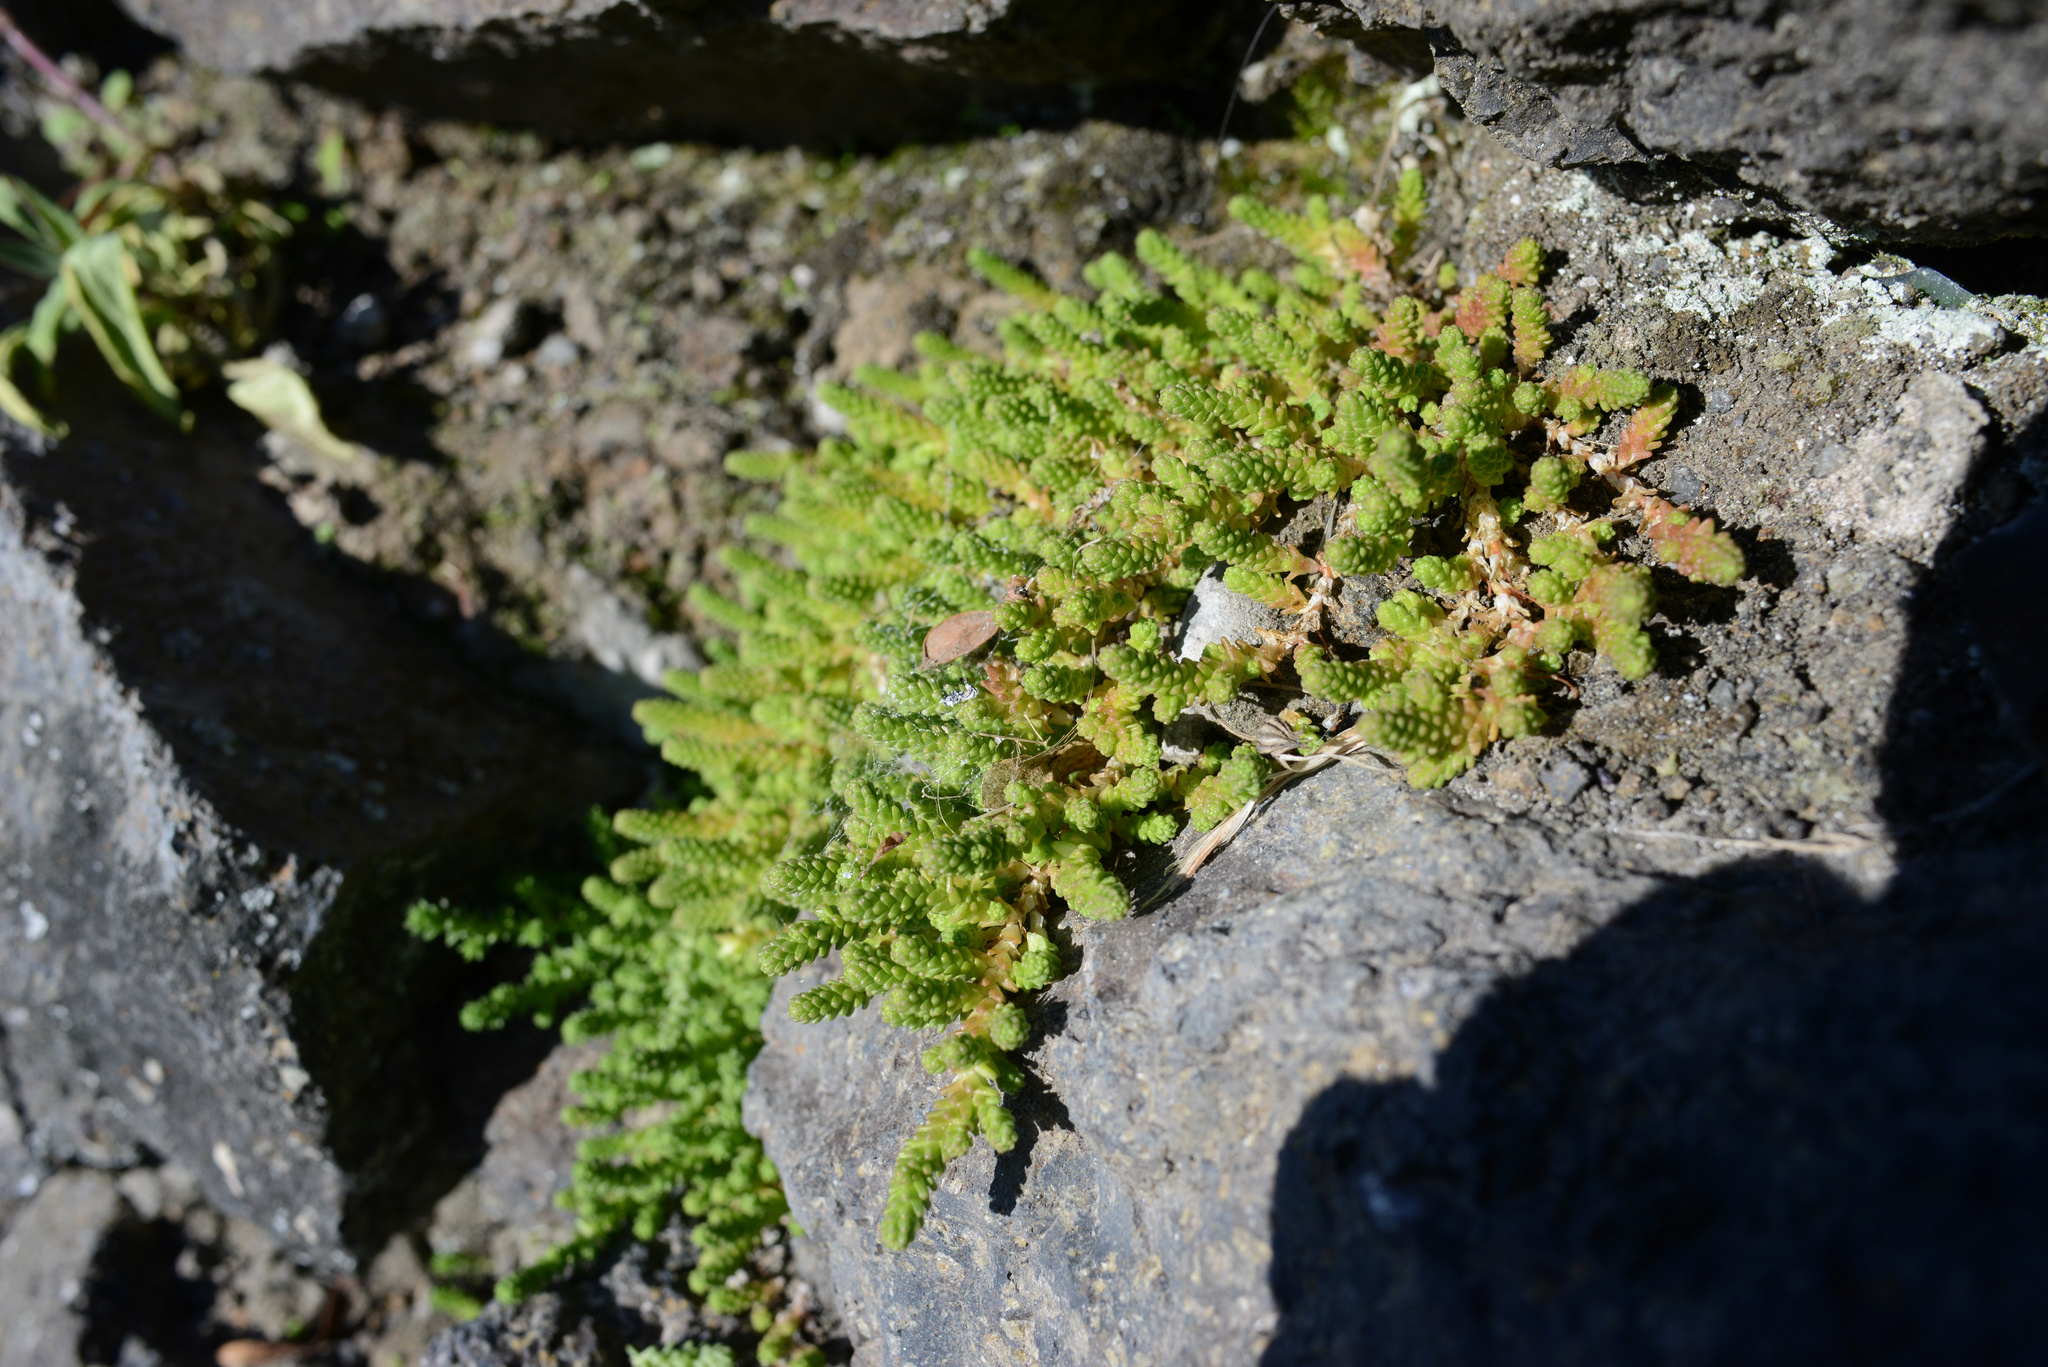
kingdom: Plantae
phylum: Tracheophyta
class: Magnoliopsida
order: Saxifragales
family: Crassulaceae
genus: Sedum
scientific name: Sedum acre
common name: Biting stonecrop
